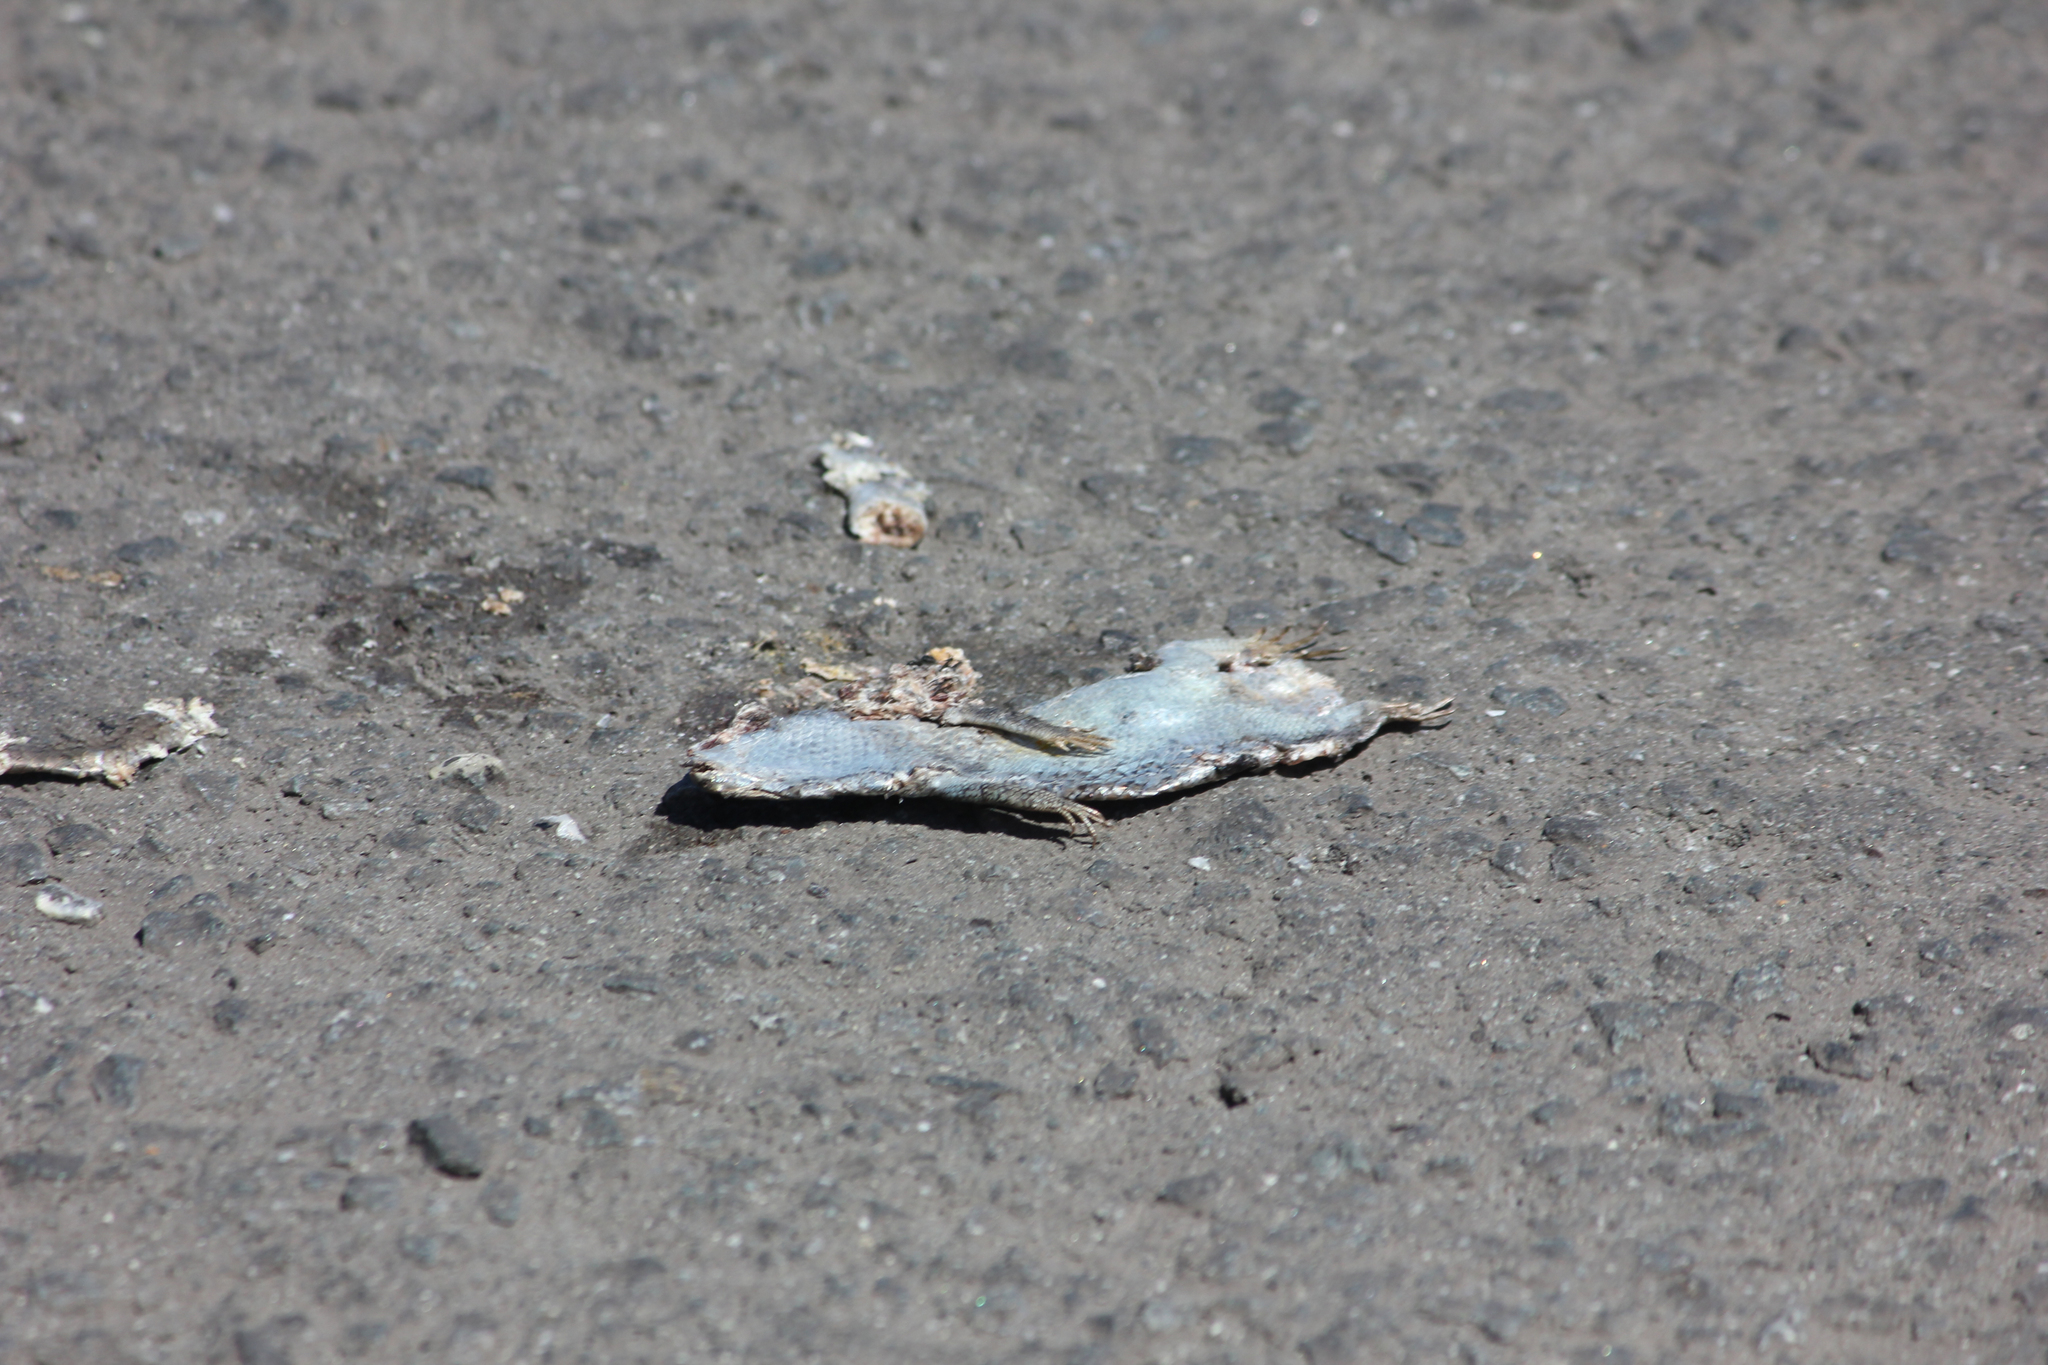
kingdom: Animalia
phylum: Chordata
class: Squamata
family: Scincidae
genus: Trachylepis
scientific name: Trachylepis capensis
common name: Cape skink
